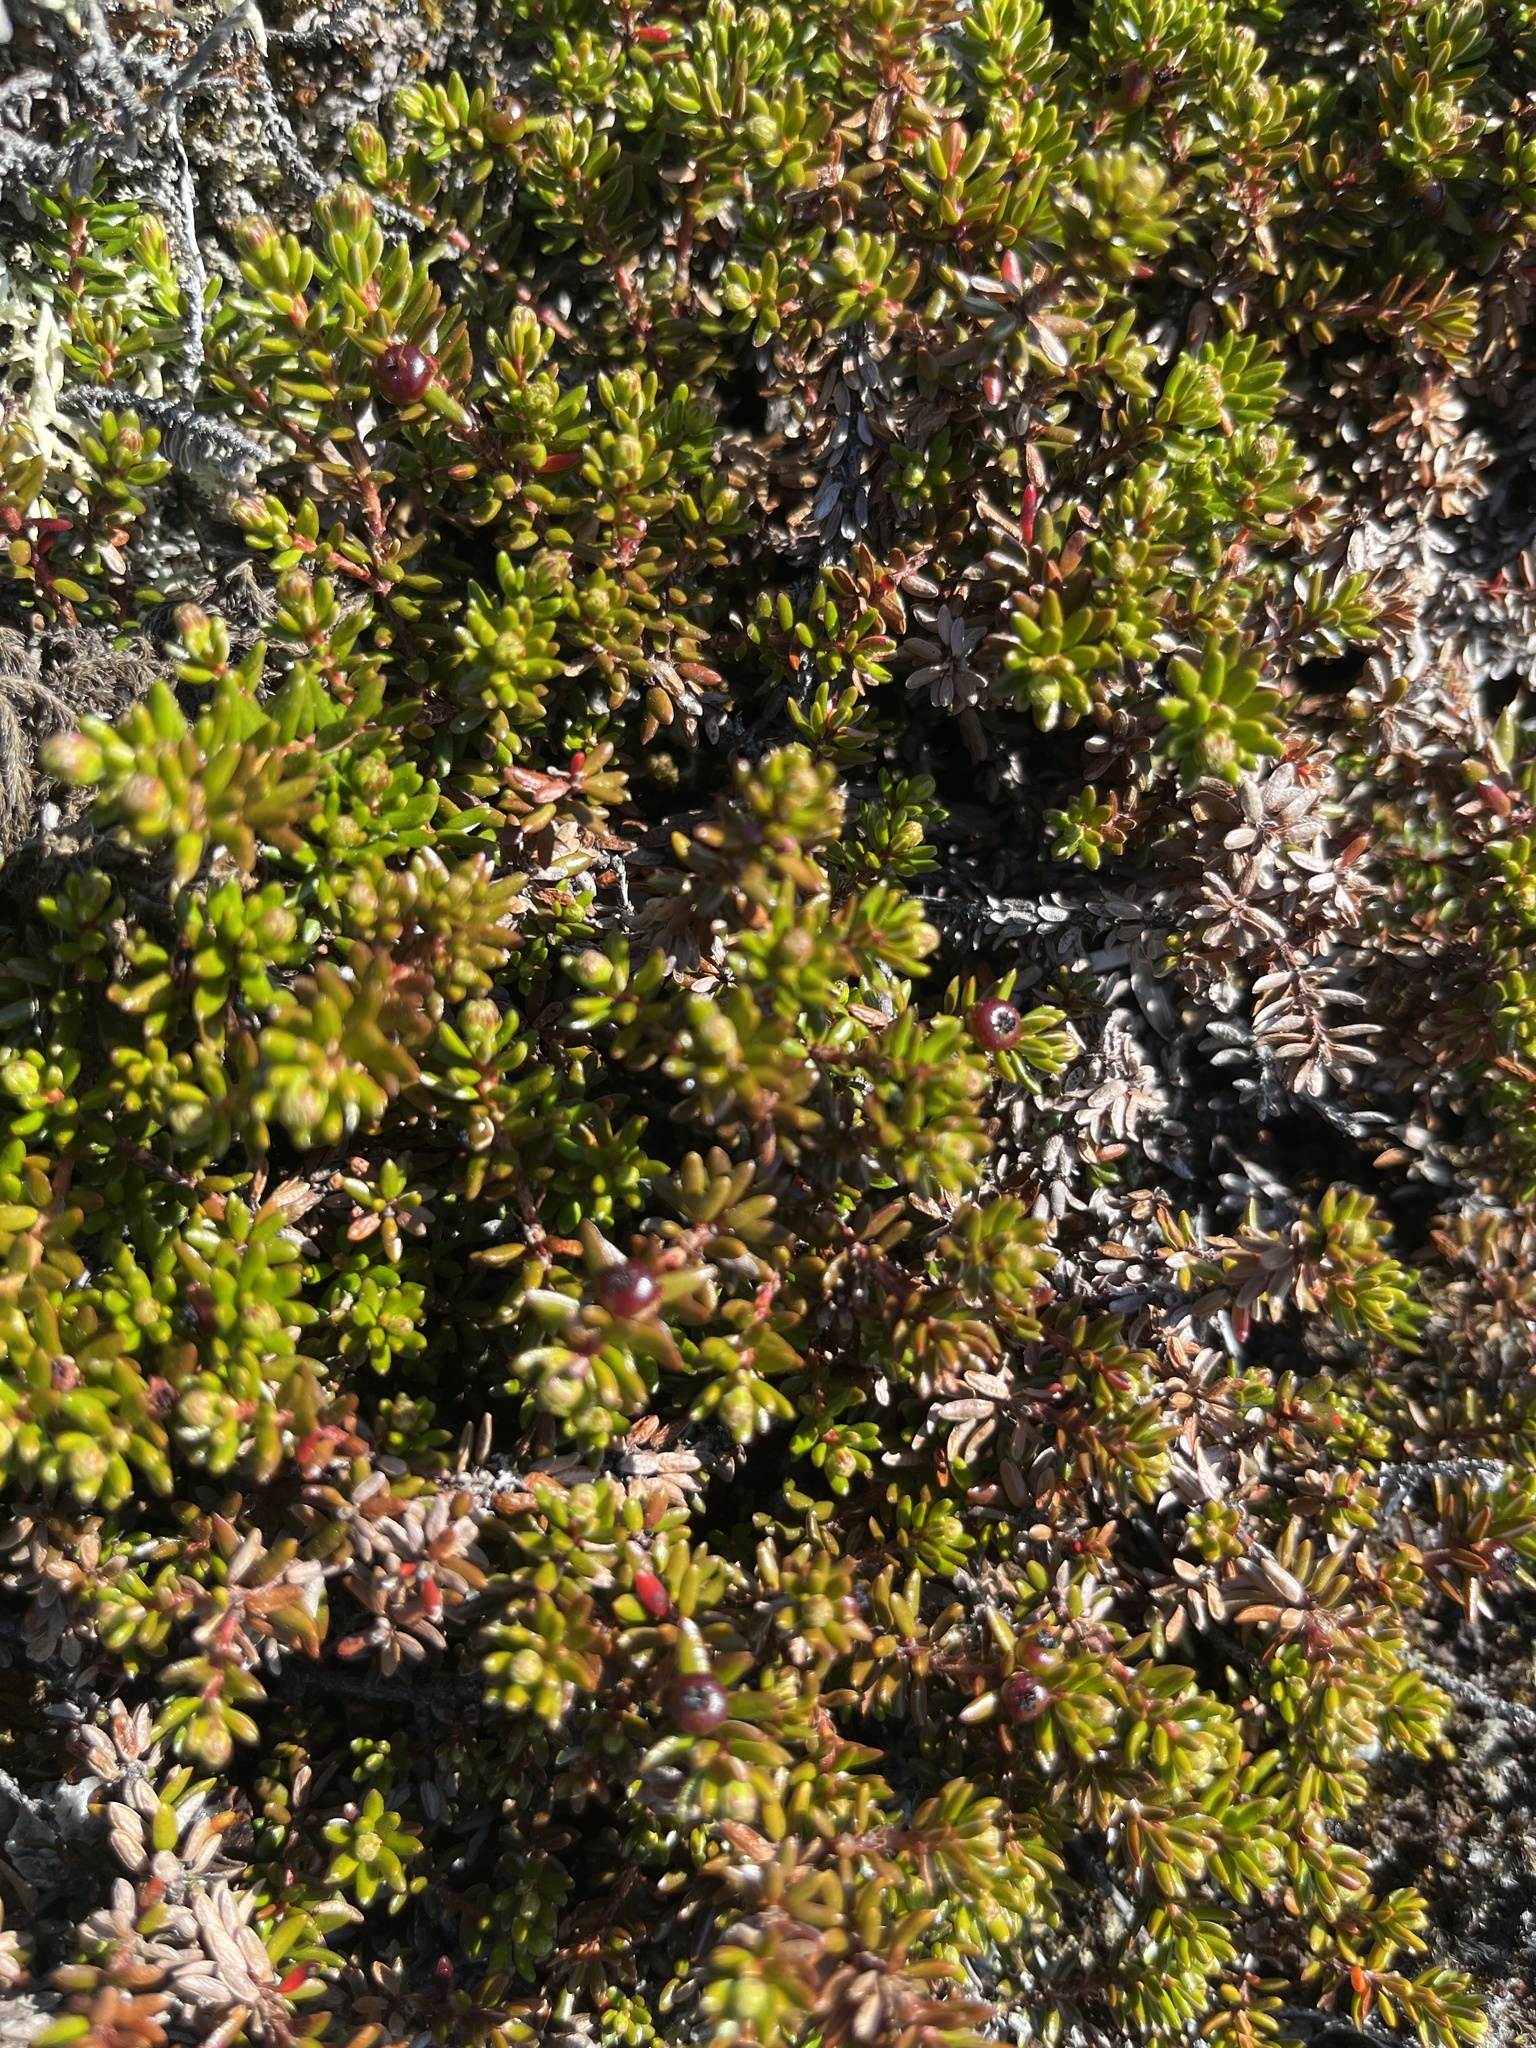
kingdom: Plantae
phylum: Tracheophyta
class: Magnoliopsida
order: Ericales
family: Ericaceae
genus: Empetrum
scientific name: Empetrum hermaphroditum
